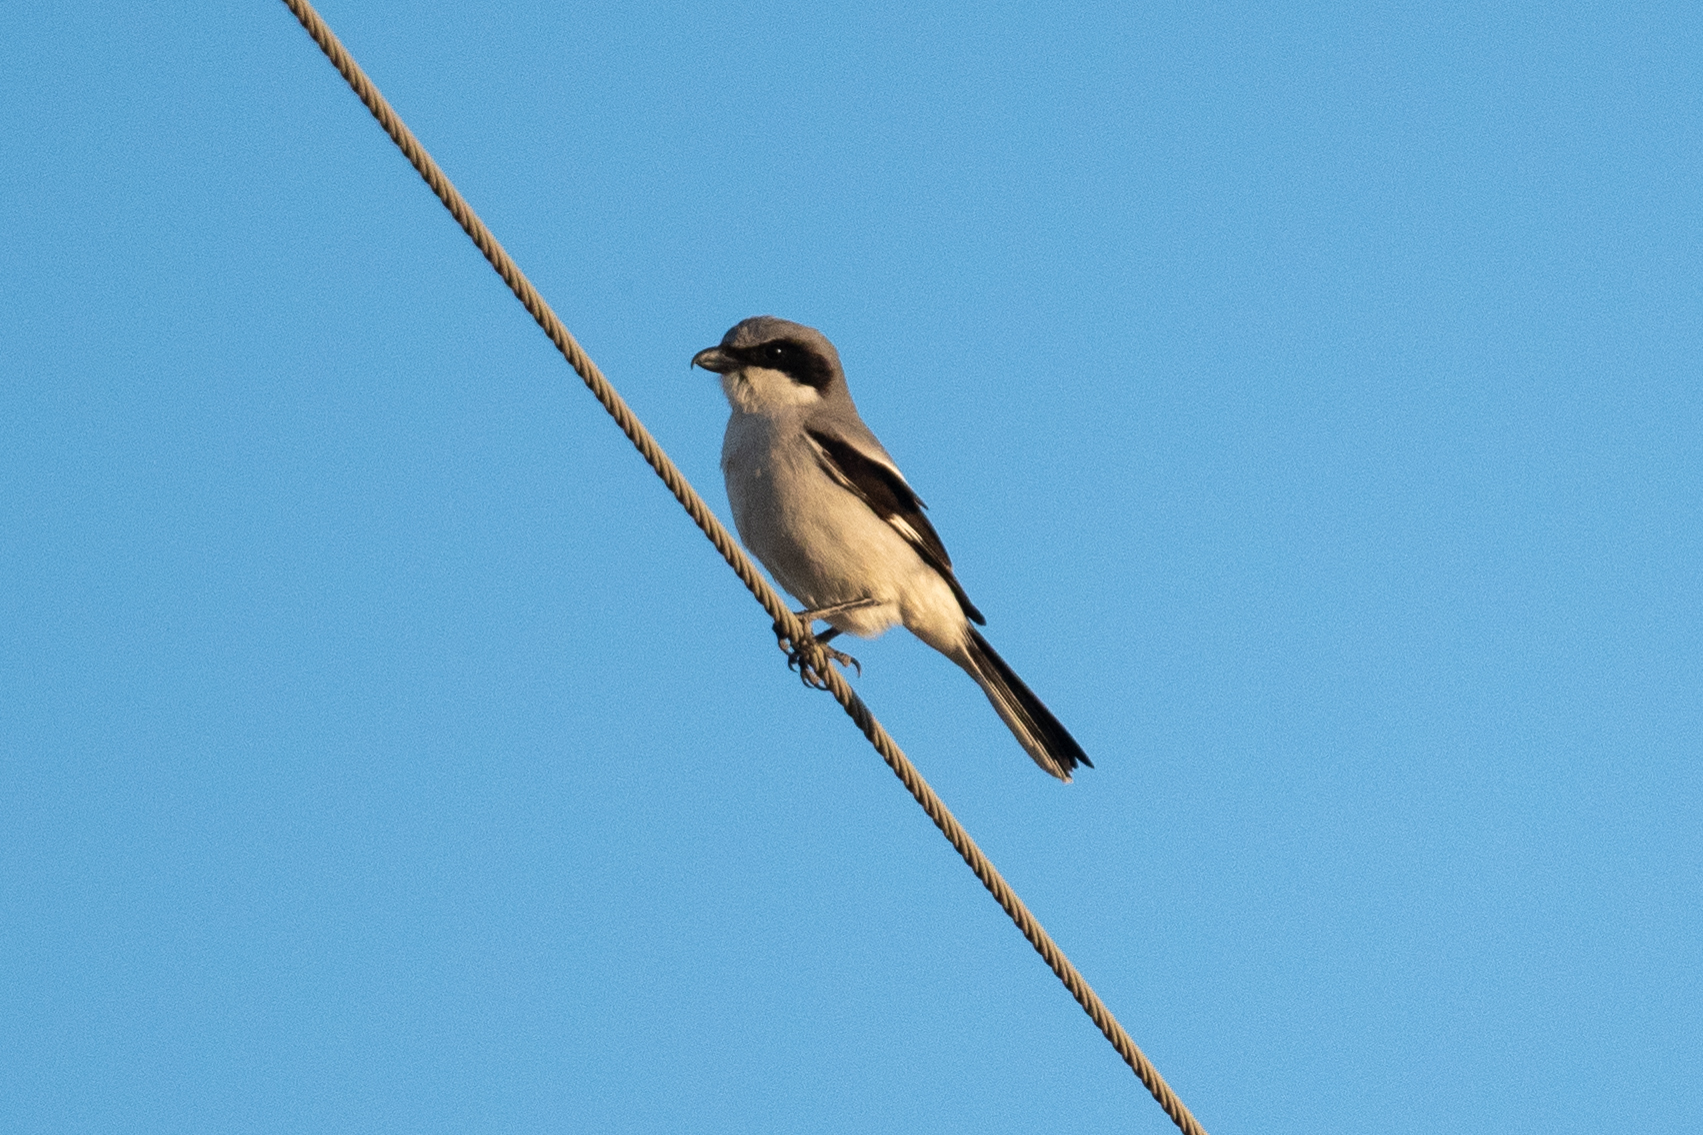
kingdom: Animalia
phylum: Chordata
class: Aves
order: Passeriformes
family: Laniidae
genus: Lanius
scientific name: Lanius ludovicianus
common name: Loggerhead shrike
